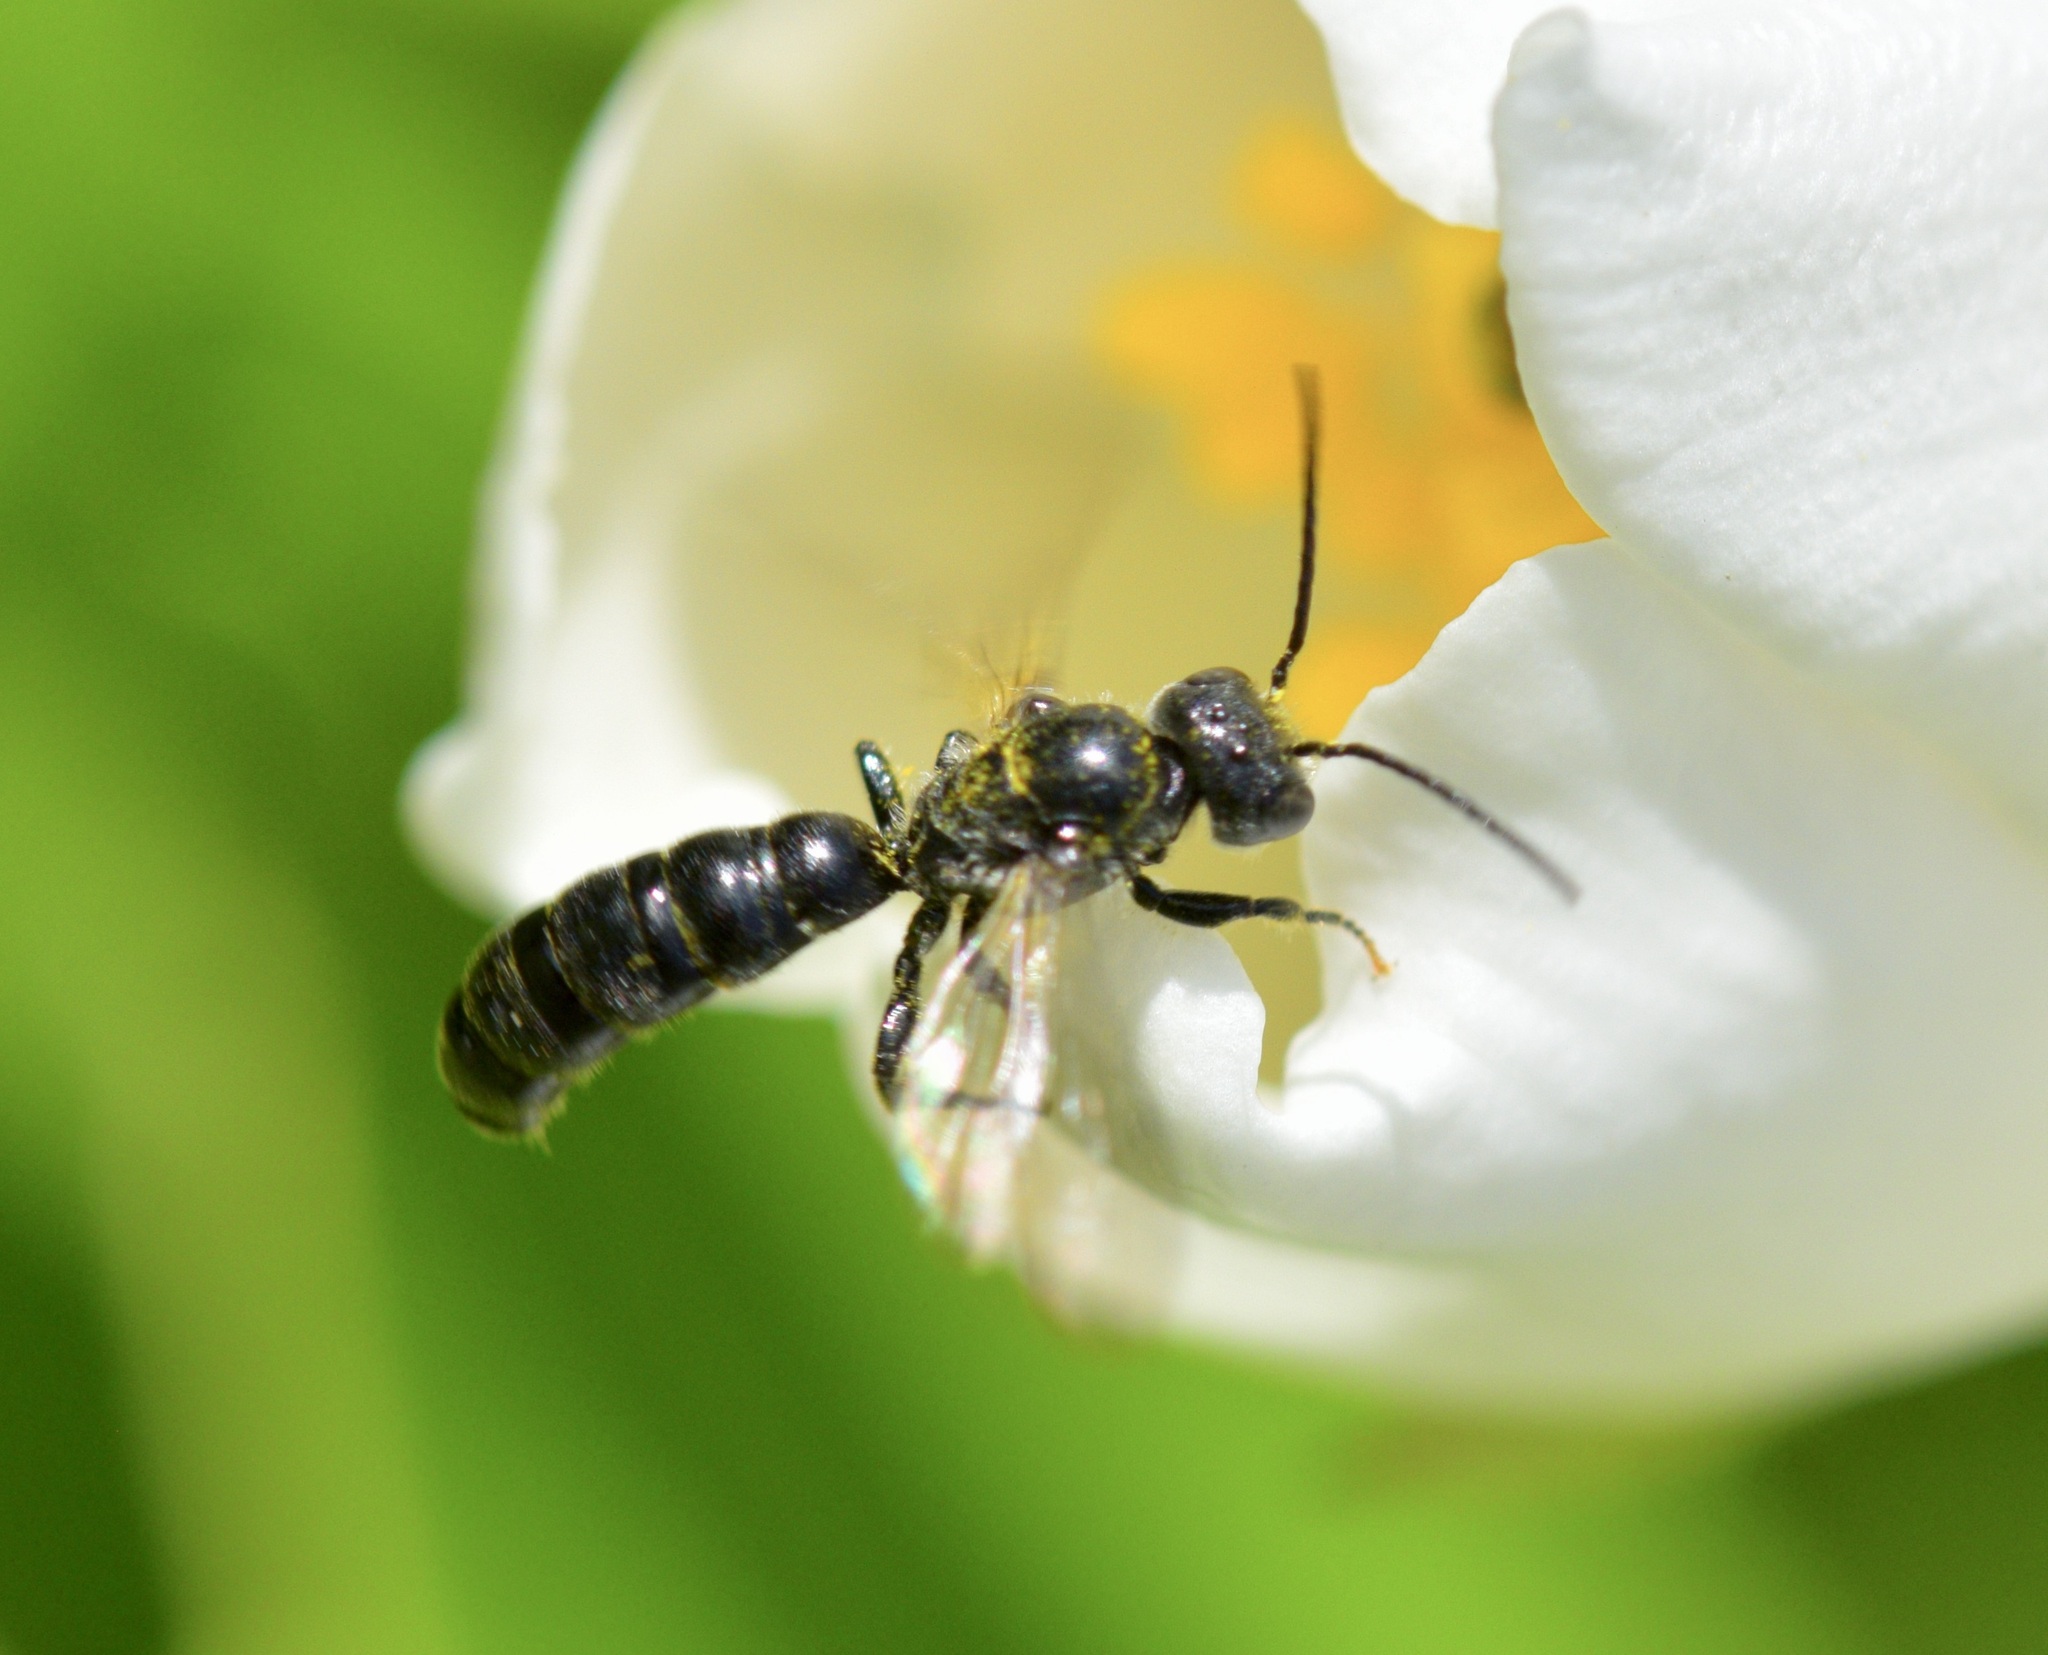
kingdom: Animalia
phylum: Arthropoda
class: Insecta
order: Hymenoptera
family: Megachilidae
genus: Chelostoma
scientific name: Chelostoma philadelphi
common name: Mock-orange scissor bee
